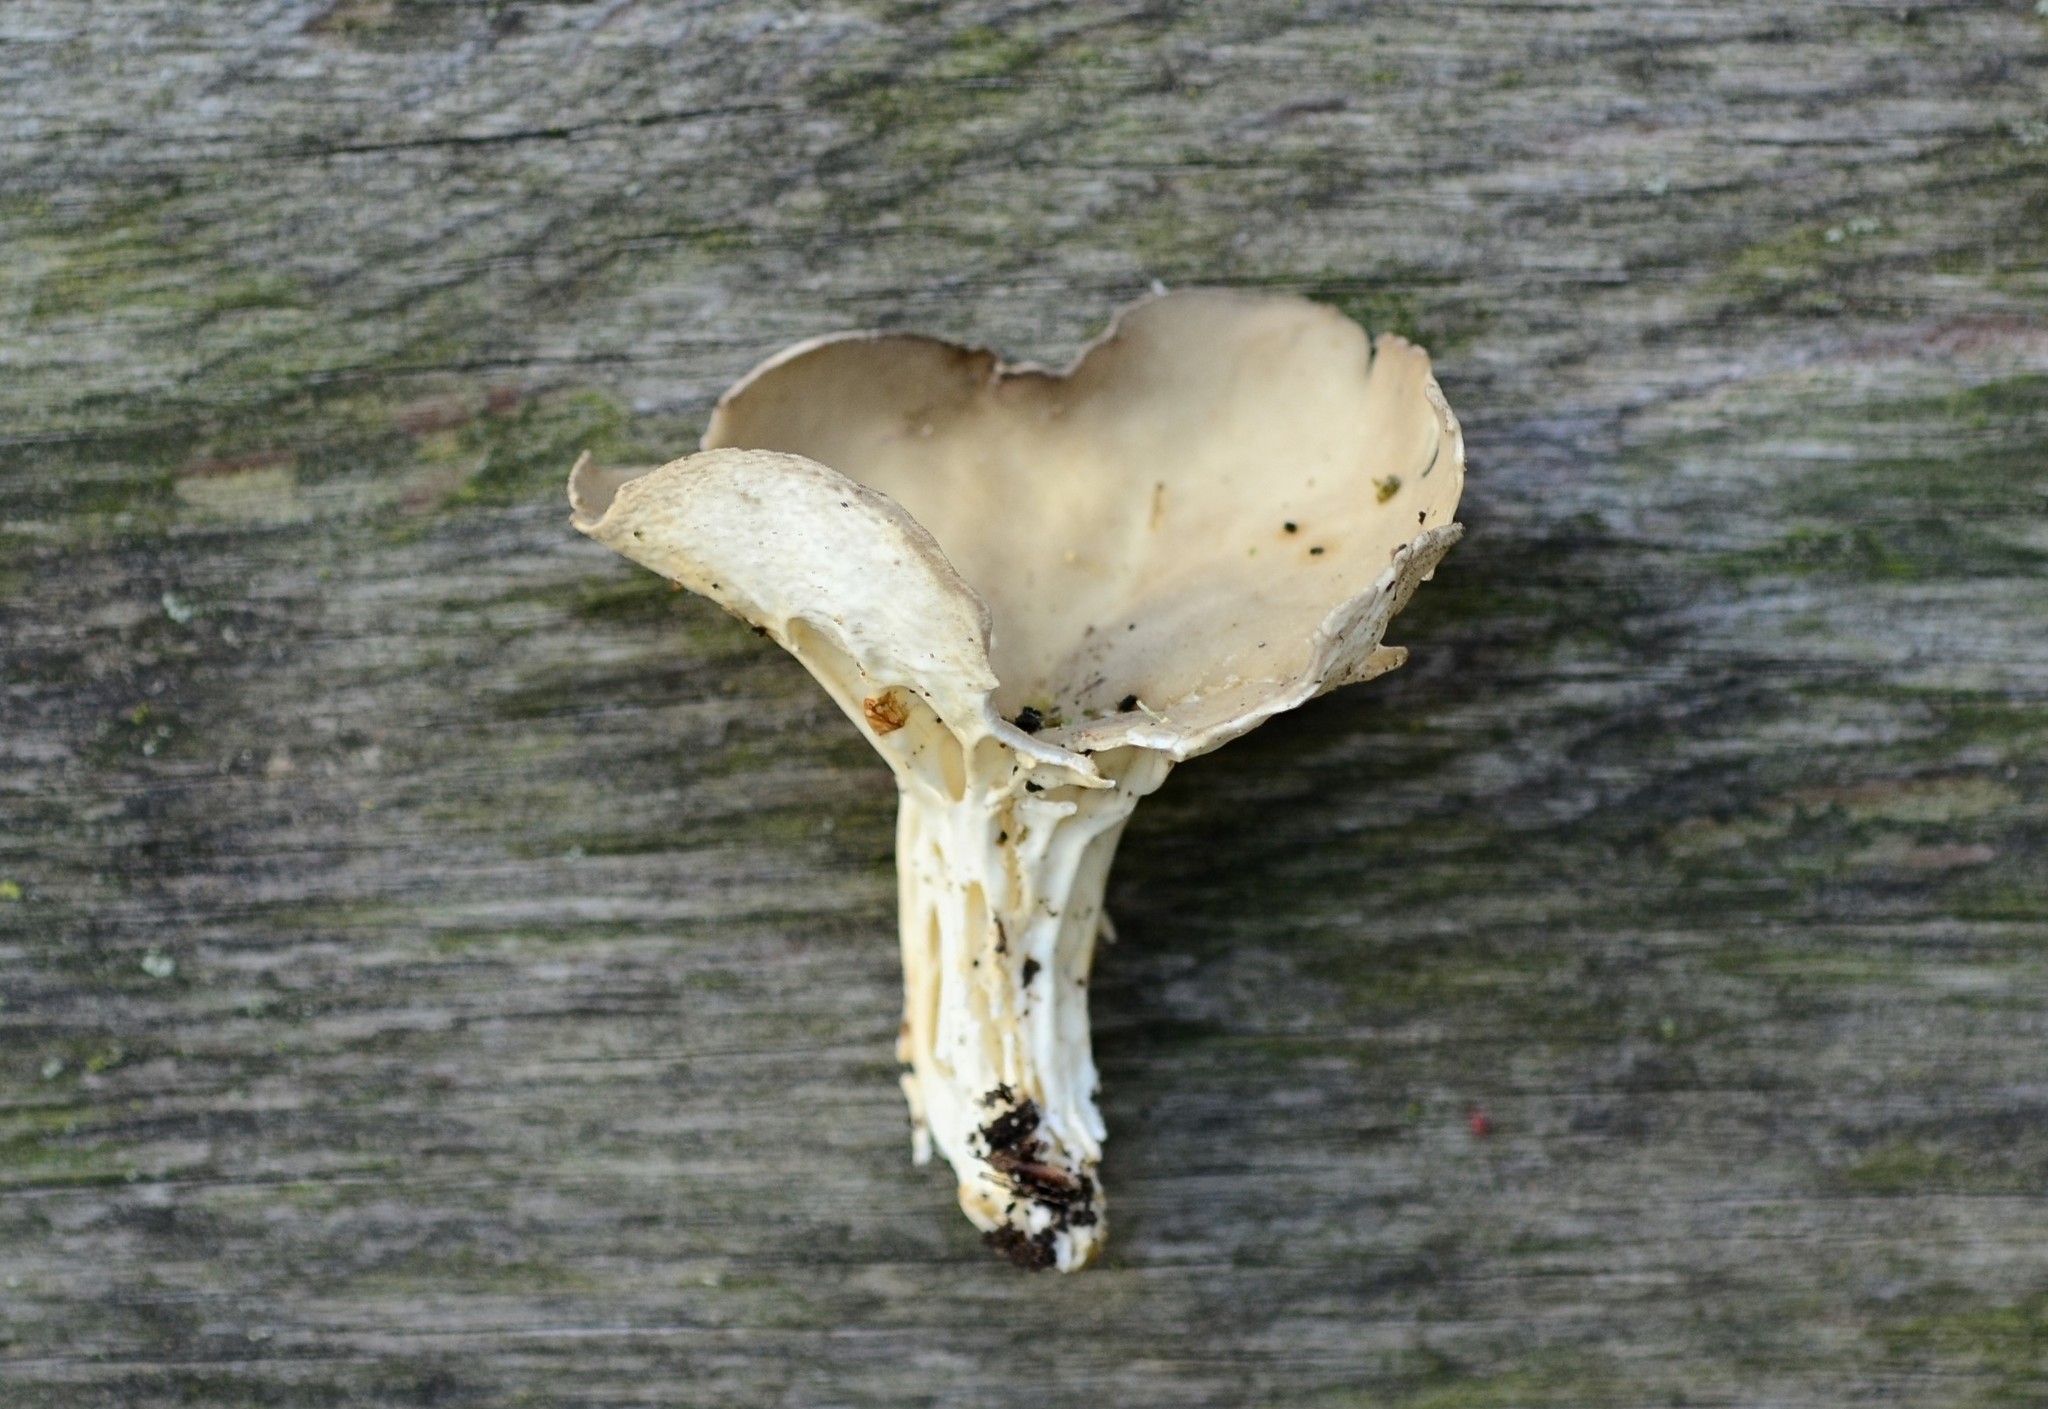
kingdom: Fungi
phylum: Ascomycota
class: Pezizomycetes
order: Pezizales
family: Helvellaceae
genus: Helvella
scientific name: Helvella griseoalba
